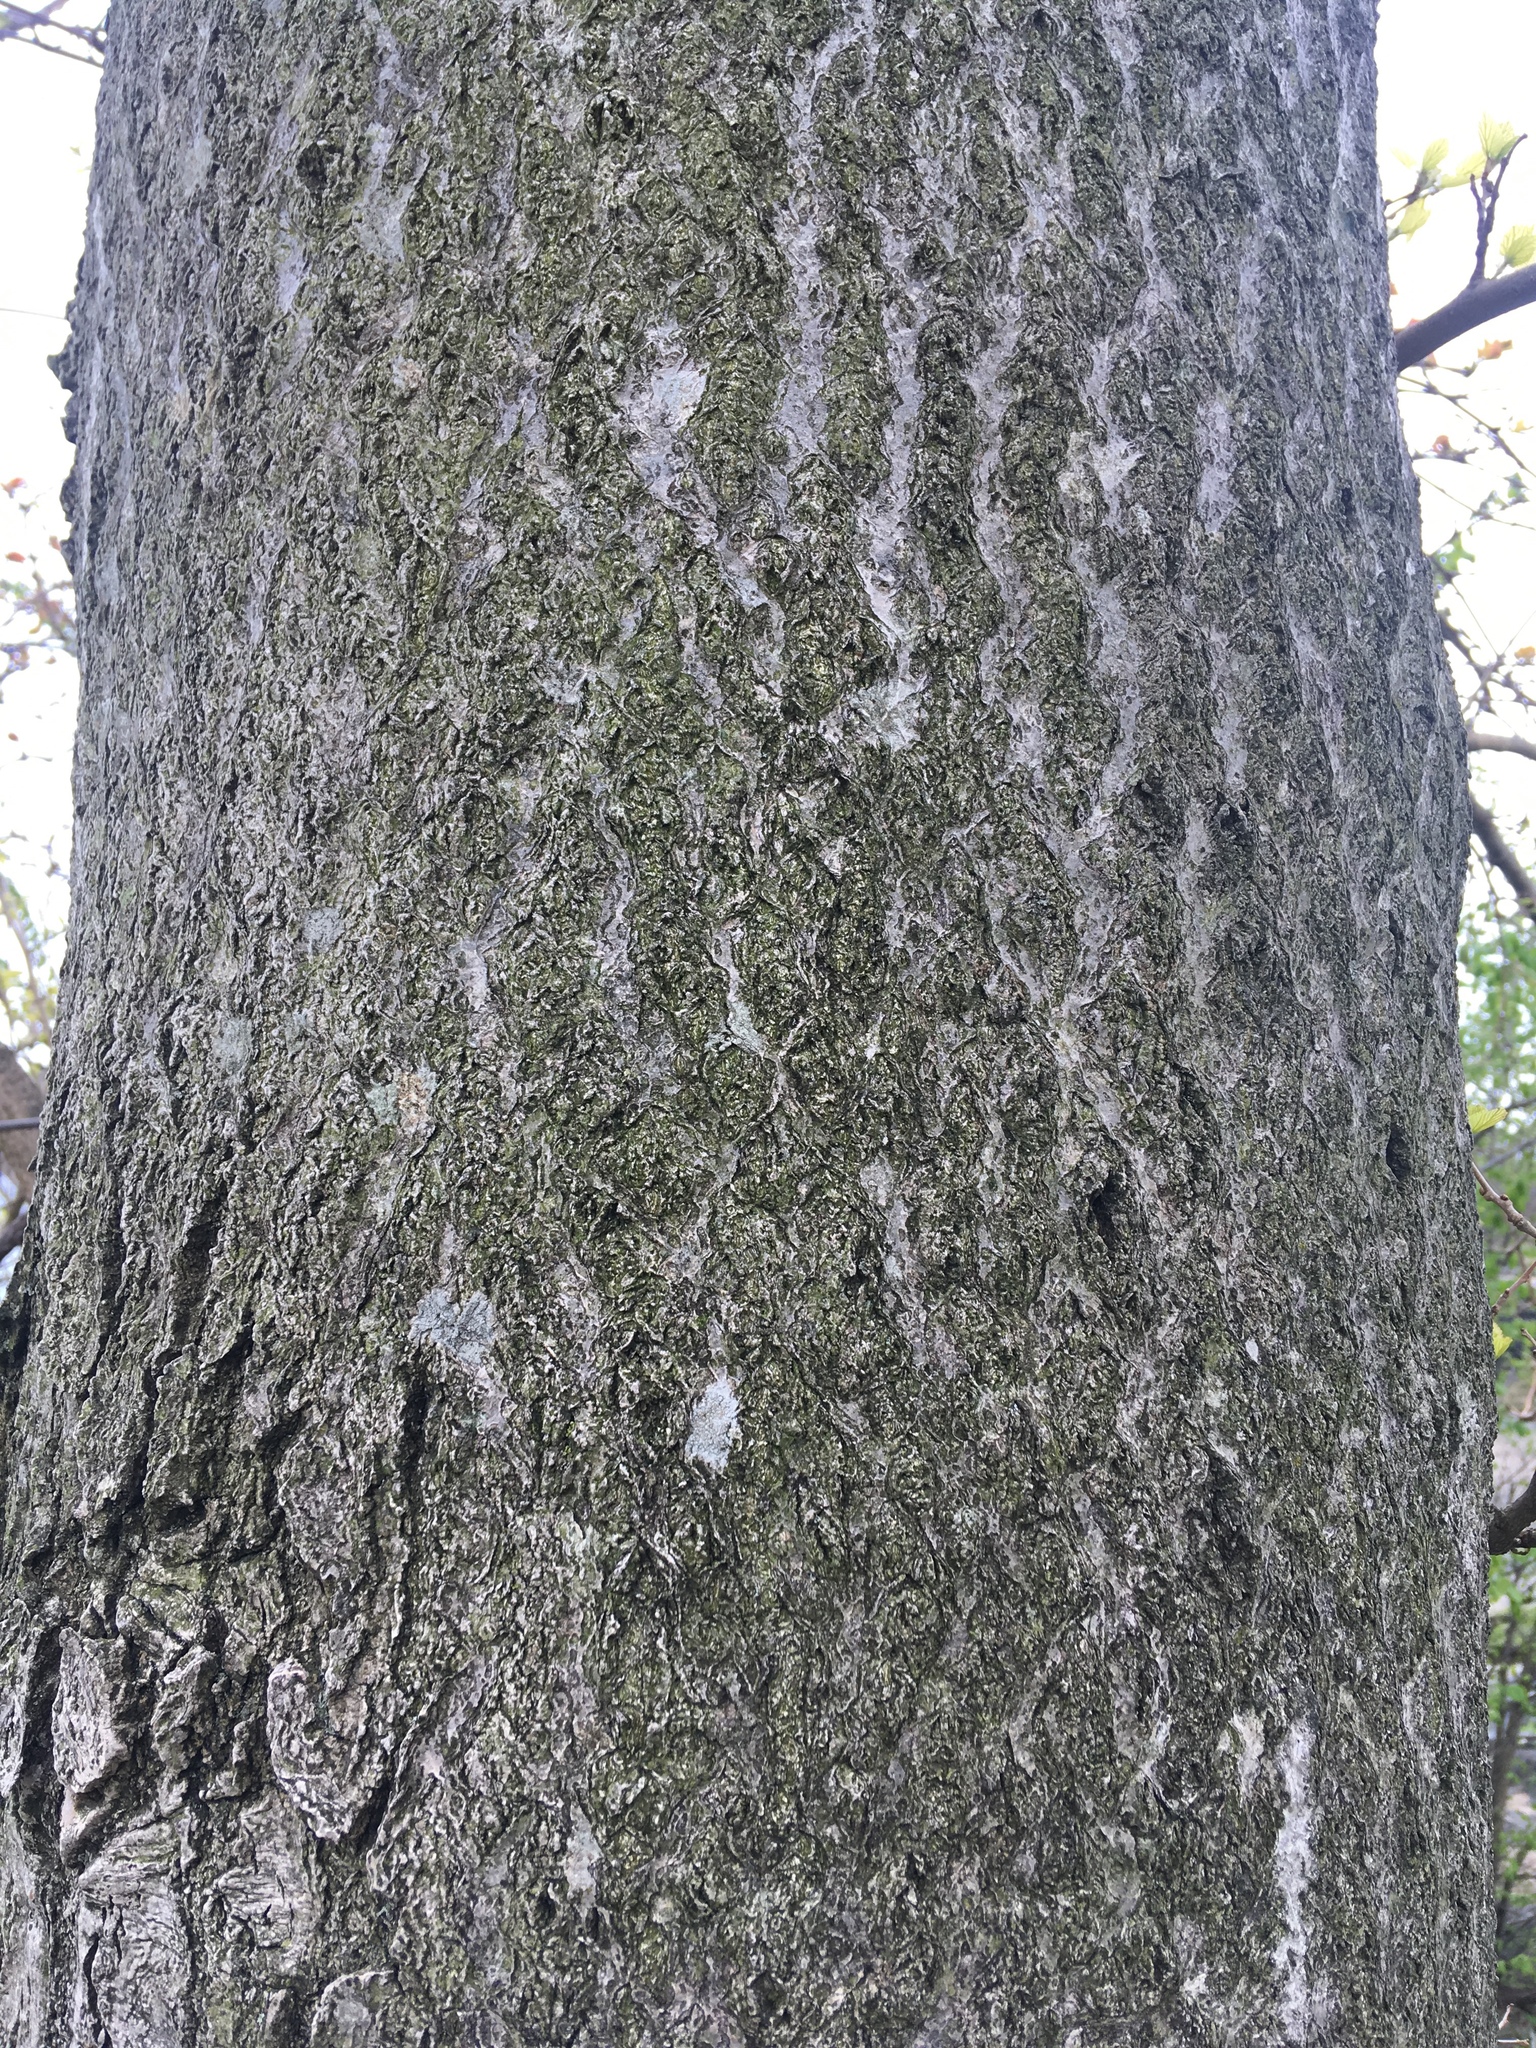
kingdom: Plantae
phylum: Tracheophyta
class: Magnoliopsida
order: Sapindales
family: Simaroubaceae
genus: Ailanthus
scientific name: Ailanthus altissima
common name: Tree-of-heaven
